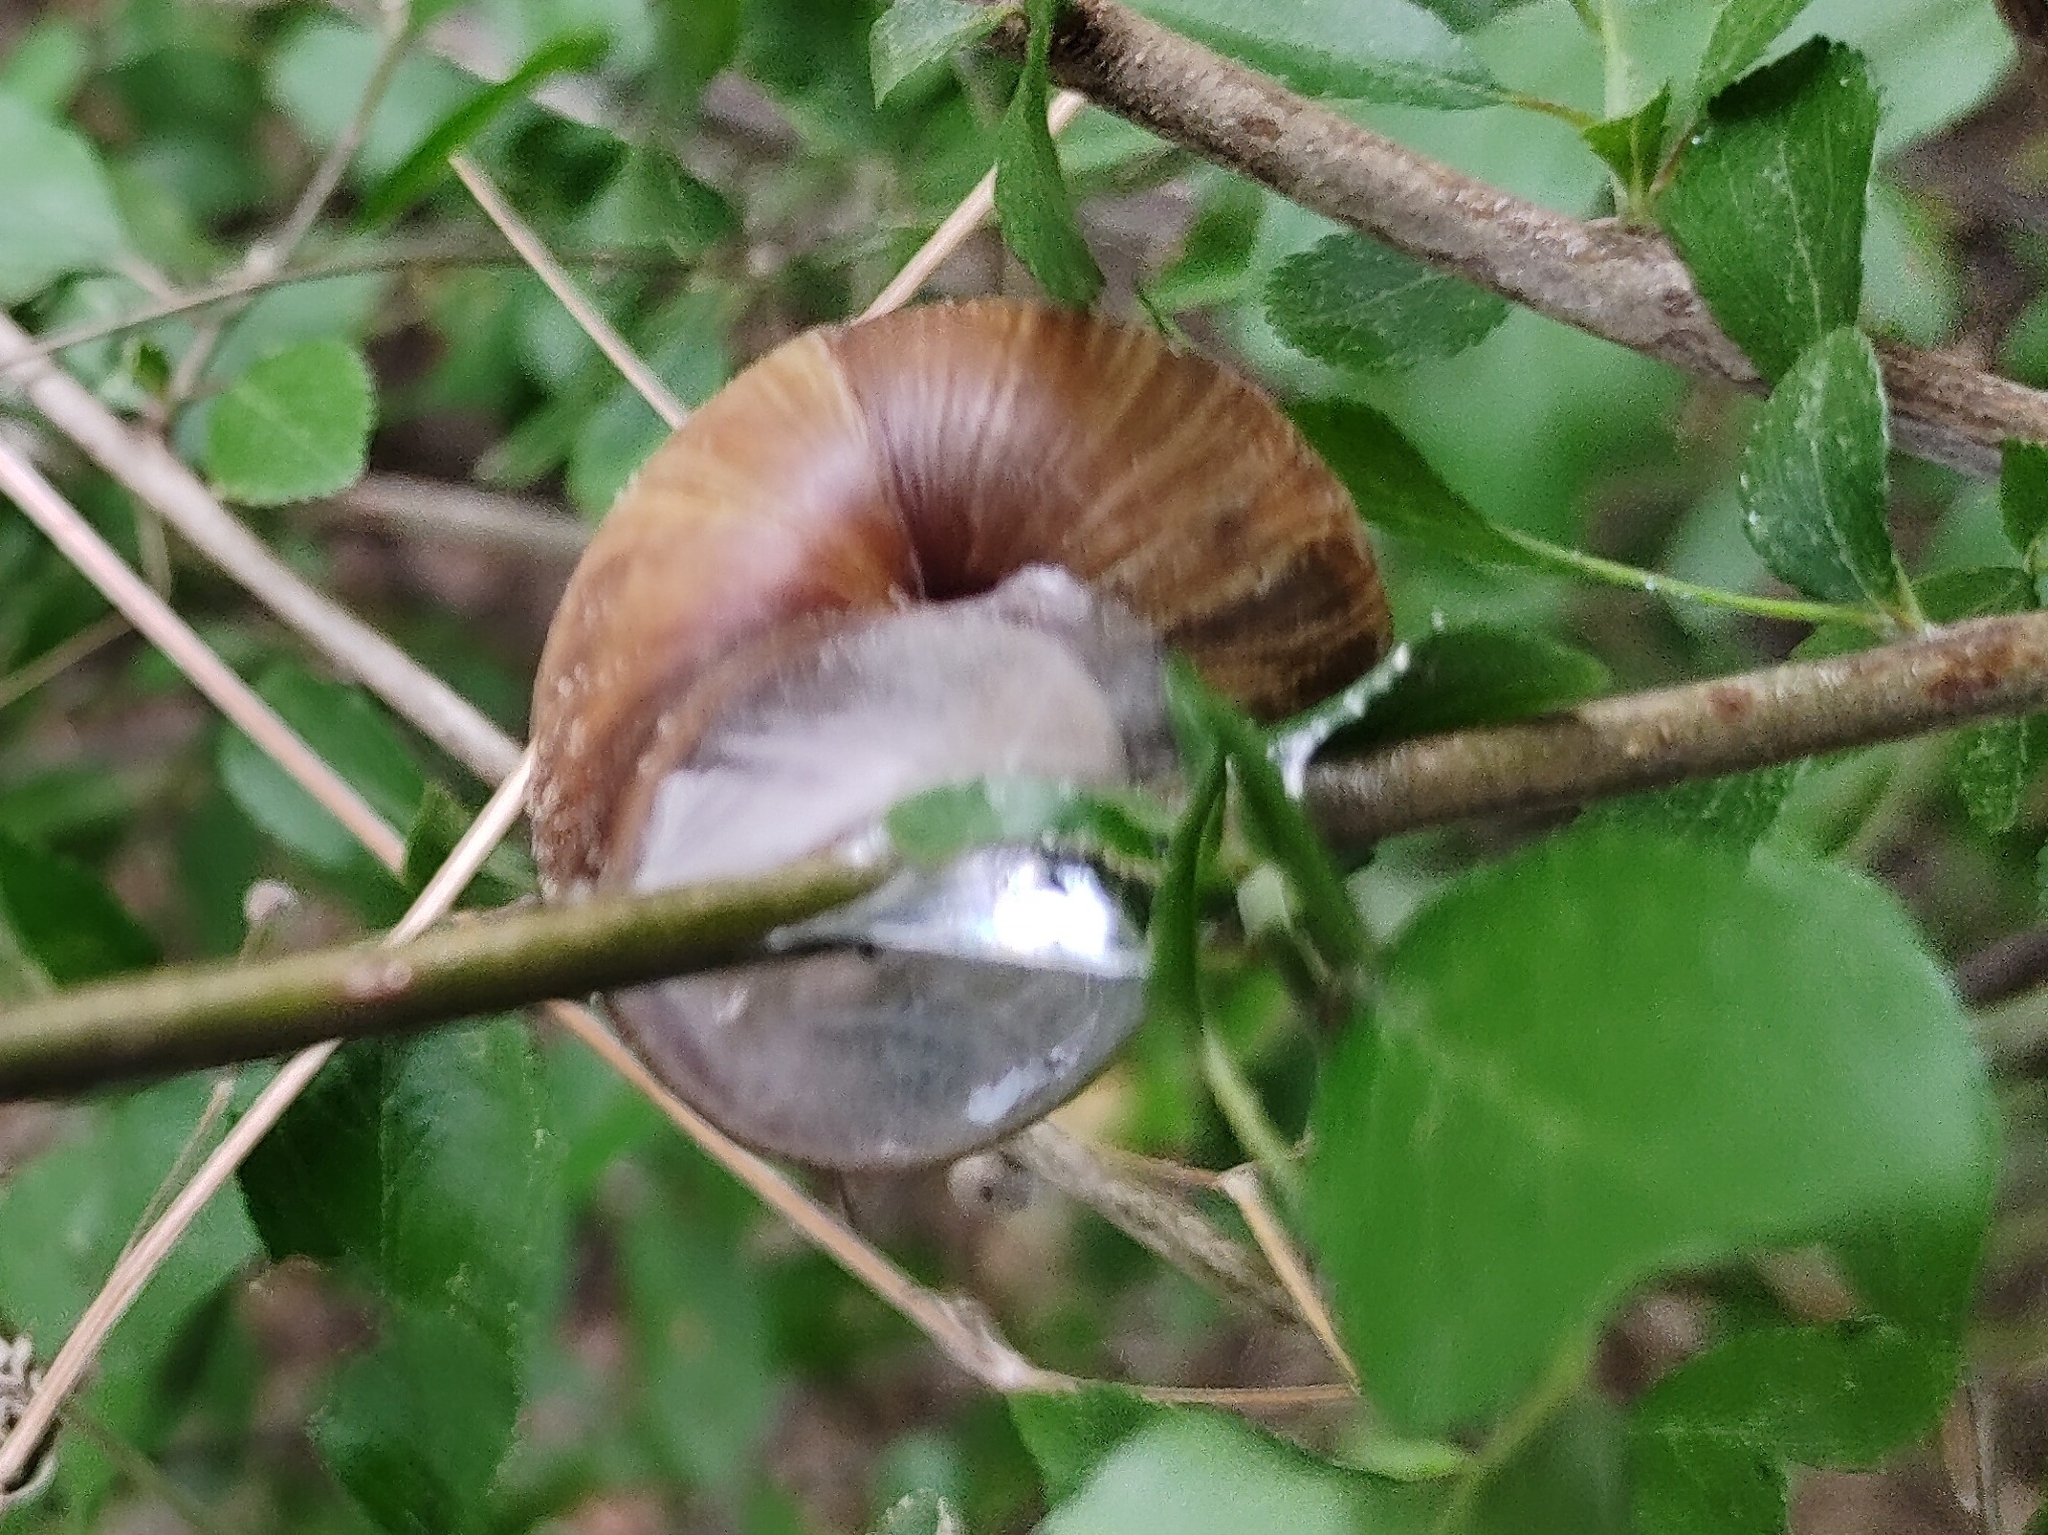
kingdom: Animalia
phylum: Mollusca
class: Gastropoda
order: Stylommatophora
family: Helicidae
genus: Helix
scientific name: Helix pomatia
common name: Roman snail
